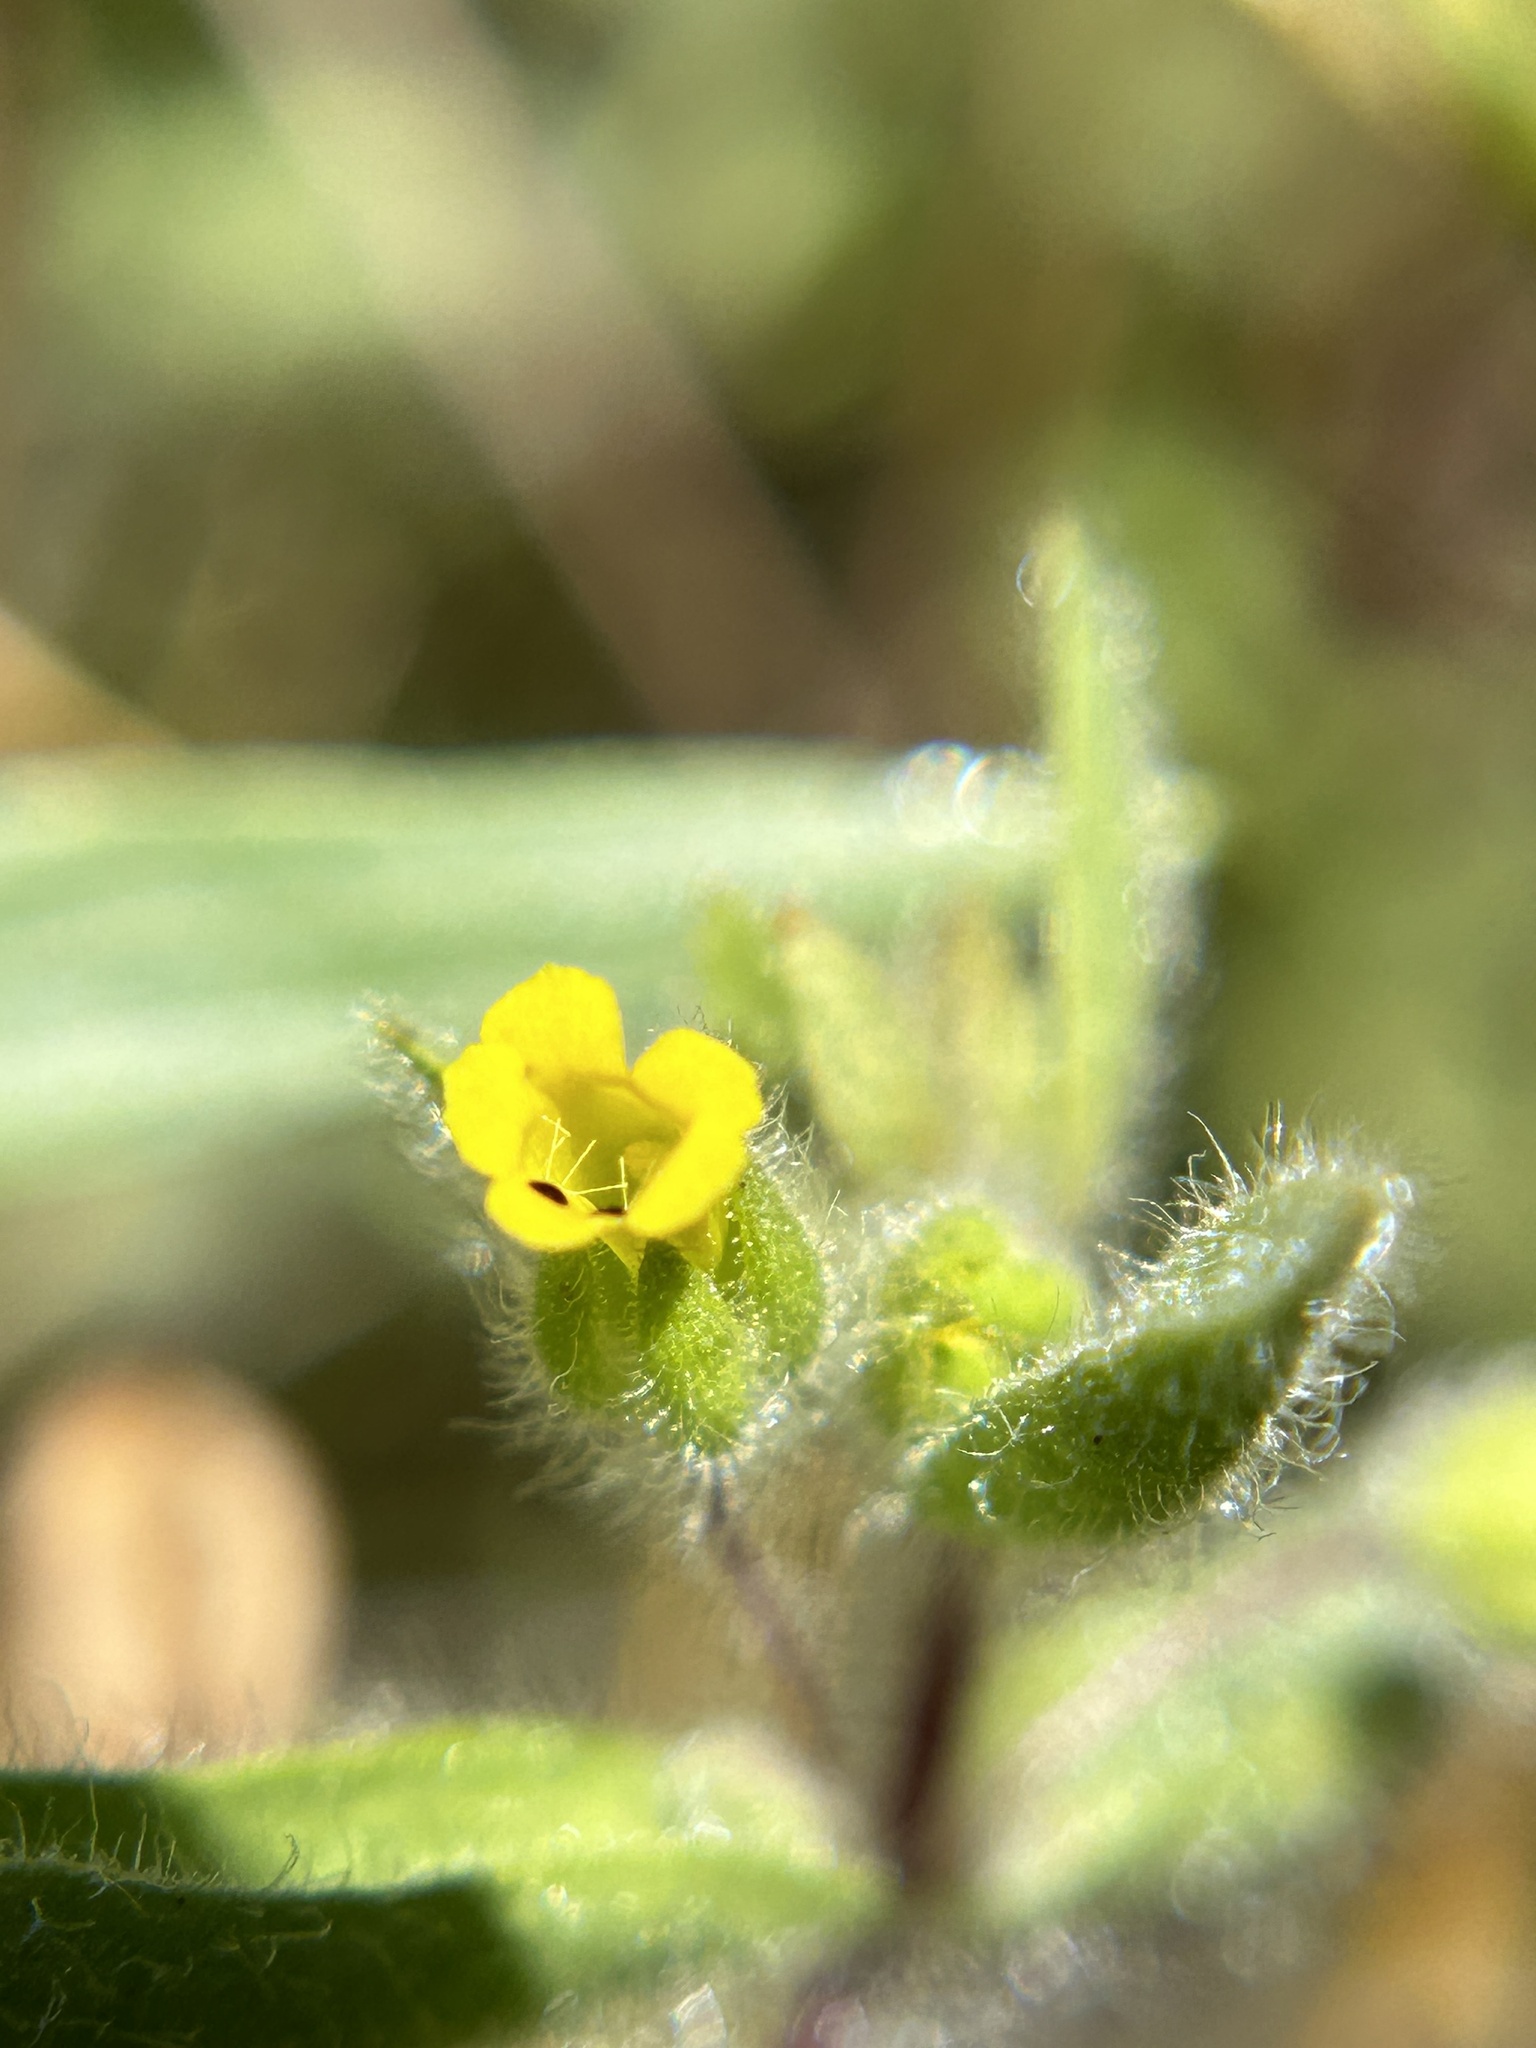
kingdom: Plantae
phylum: Tracheophyta
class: Magnoliopsida
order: Lamiales
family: Phrymaceae
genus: Mimetanthe
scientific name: Mimetanthe pilosa
